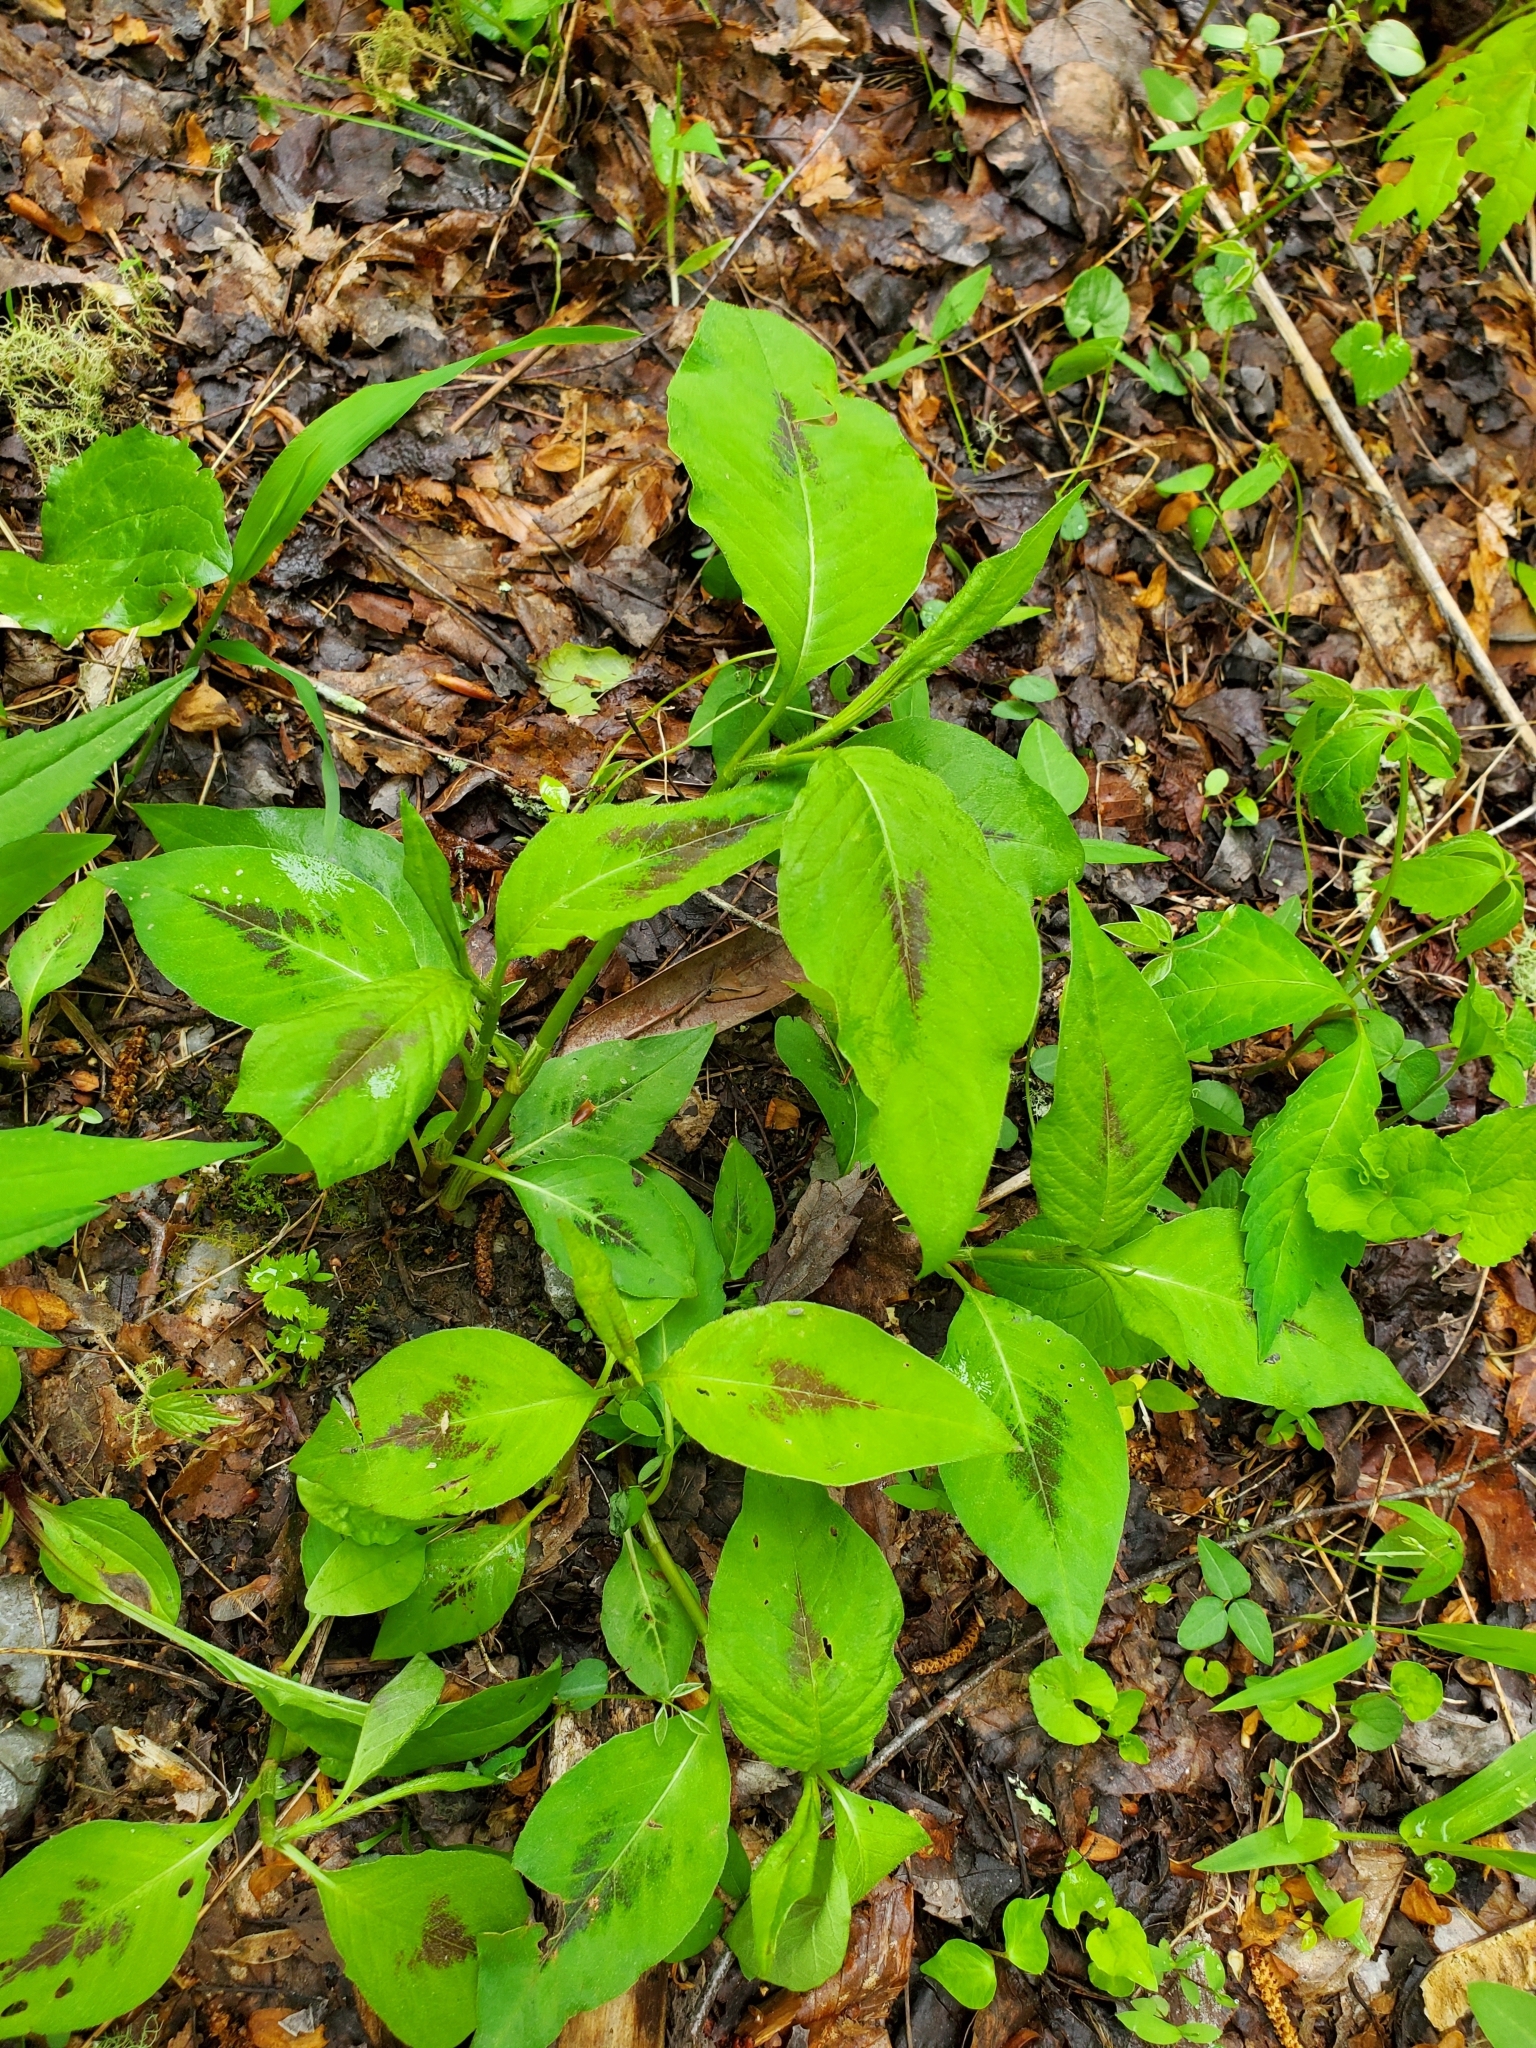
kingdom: Plantae
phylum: Tracheophyta
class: Magnoliopsida
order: Caryophyllales
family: Polygonaceae
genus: Persicaria
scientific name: Persicaria virginiana
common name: Jumpseed
